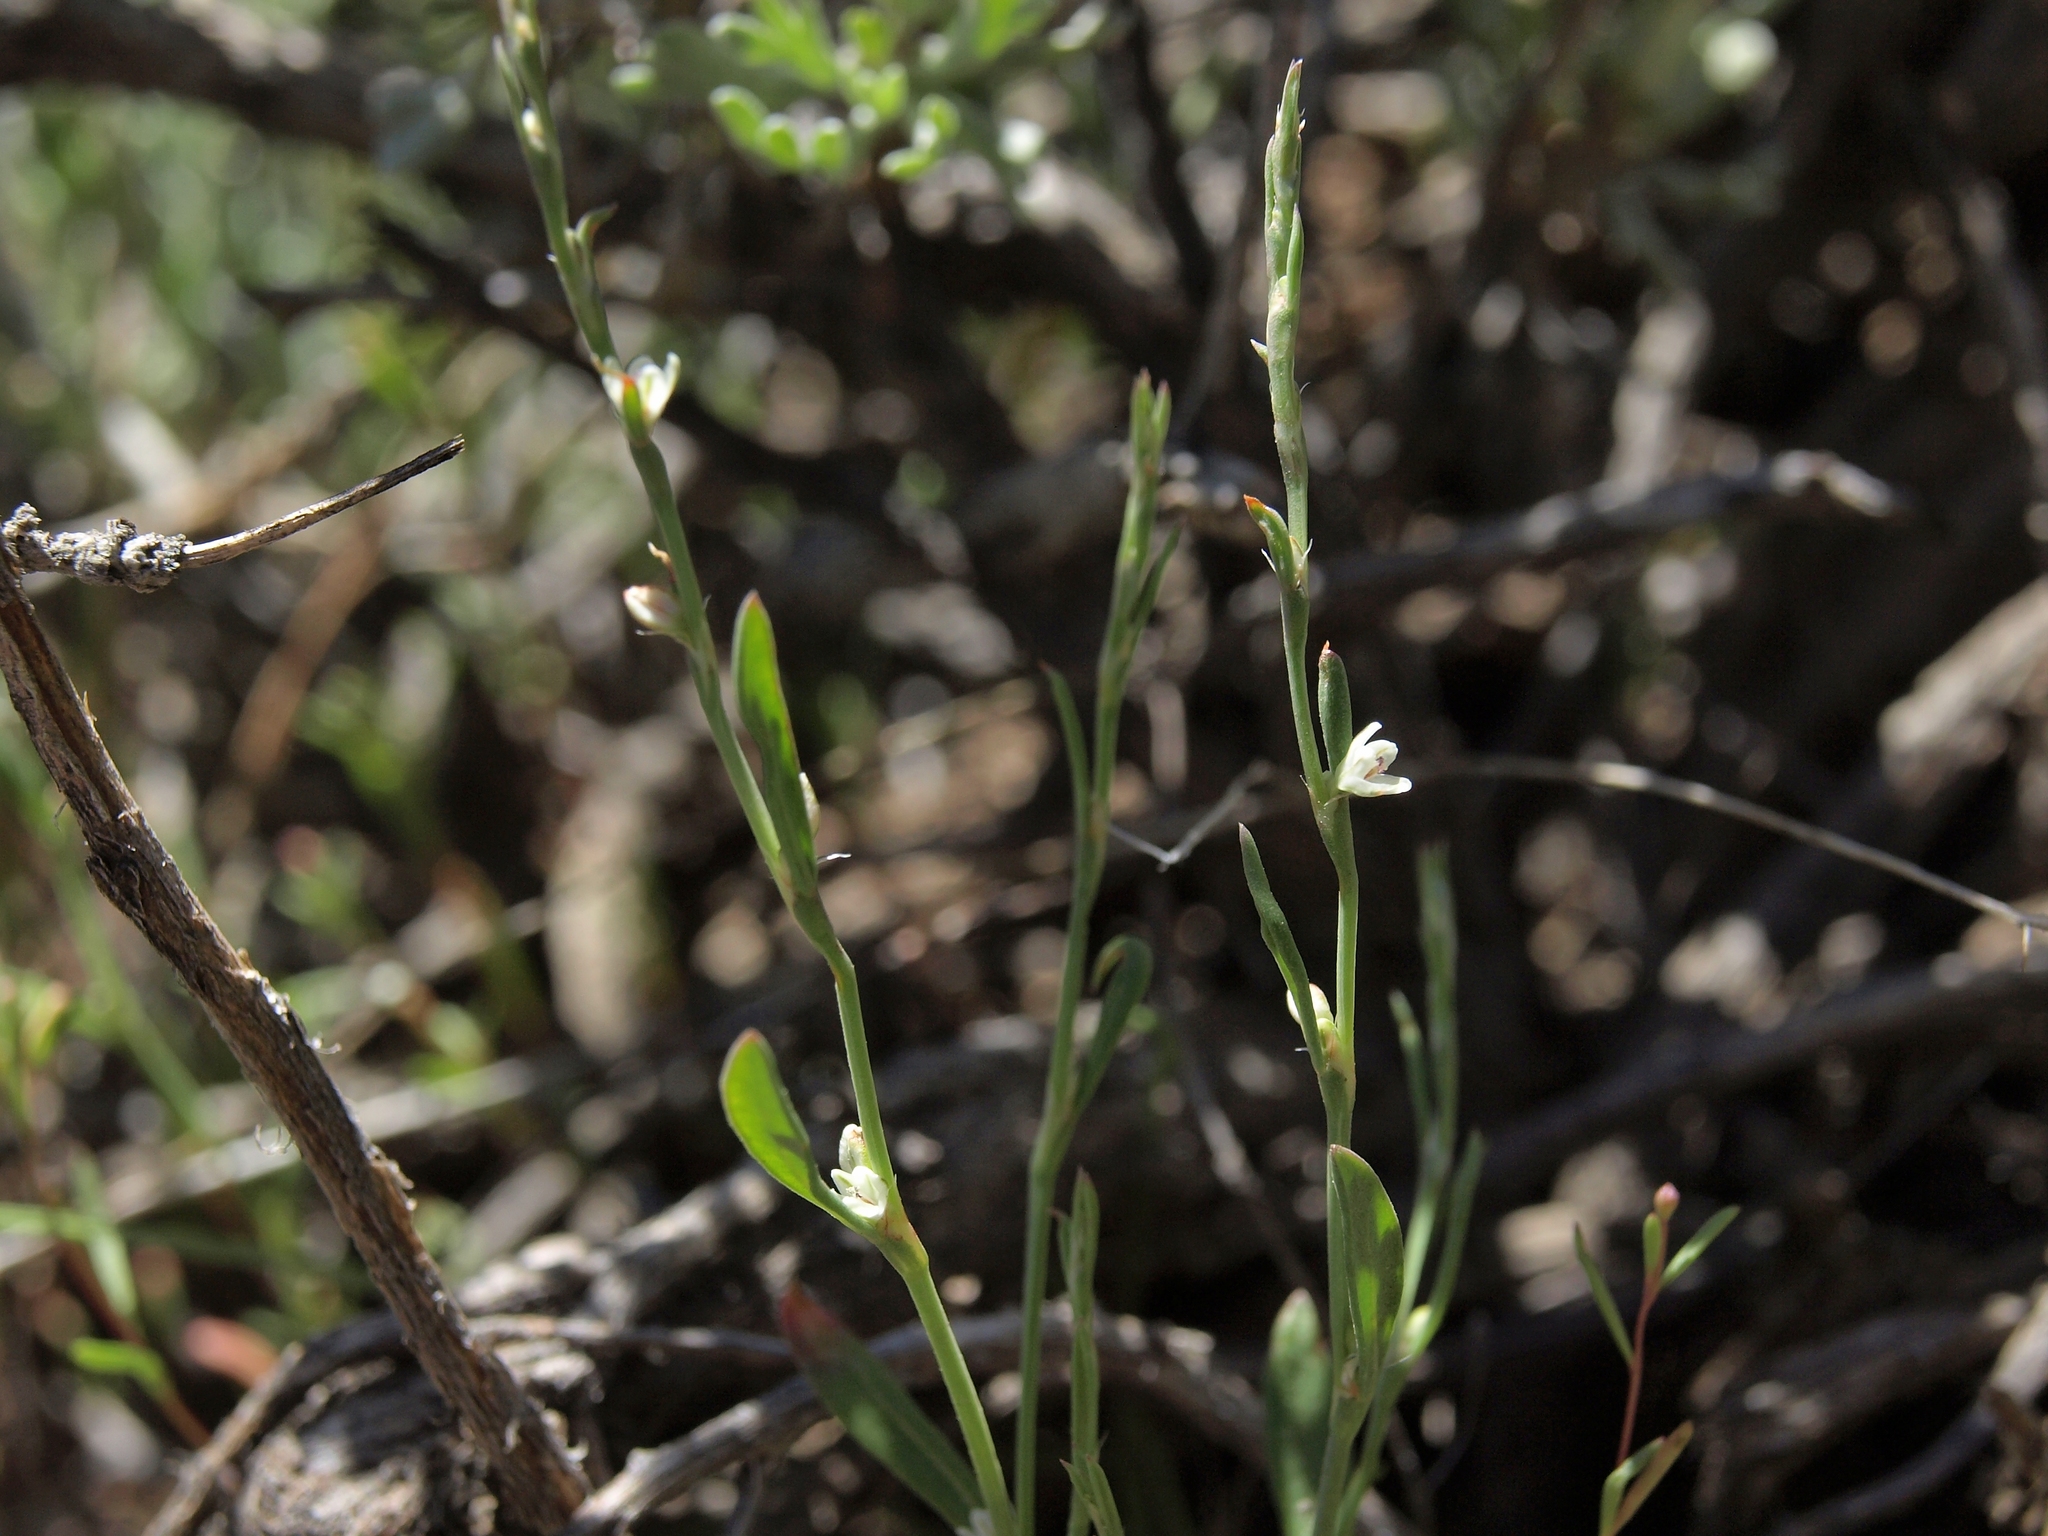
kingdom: Plantae
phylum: Tracheophyta
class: Magnoliopsida
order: Caryophyllales
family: Polygonaceae
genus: Polygonum
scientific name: Polygonum sawatchense
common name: Sawatch knotweed
